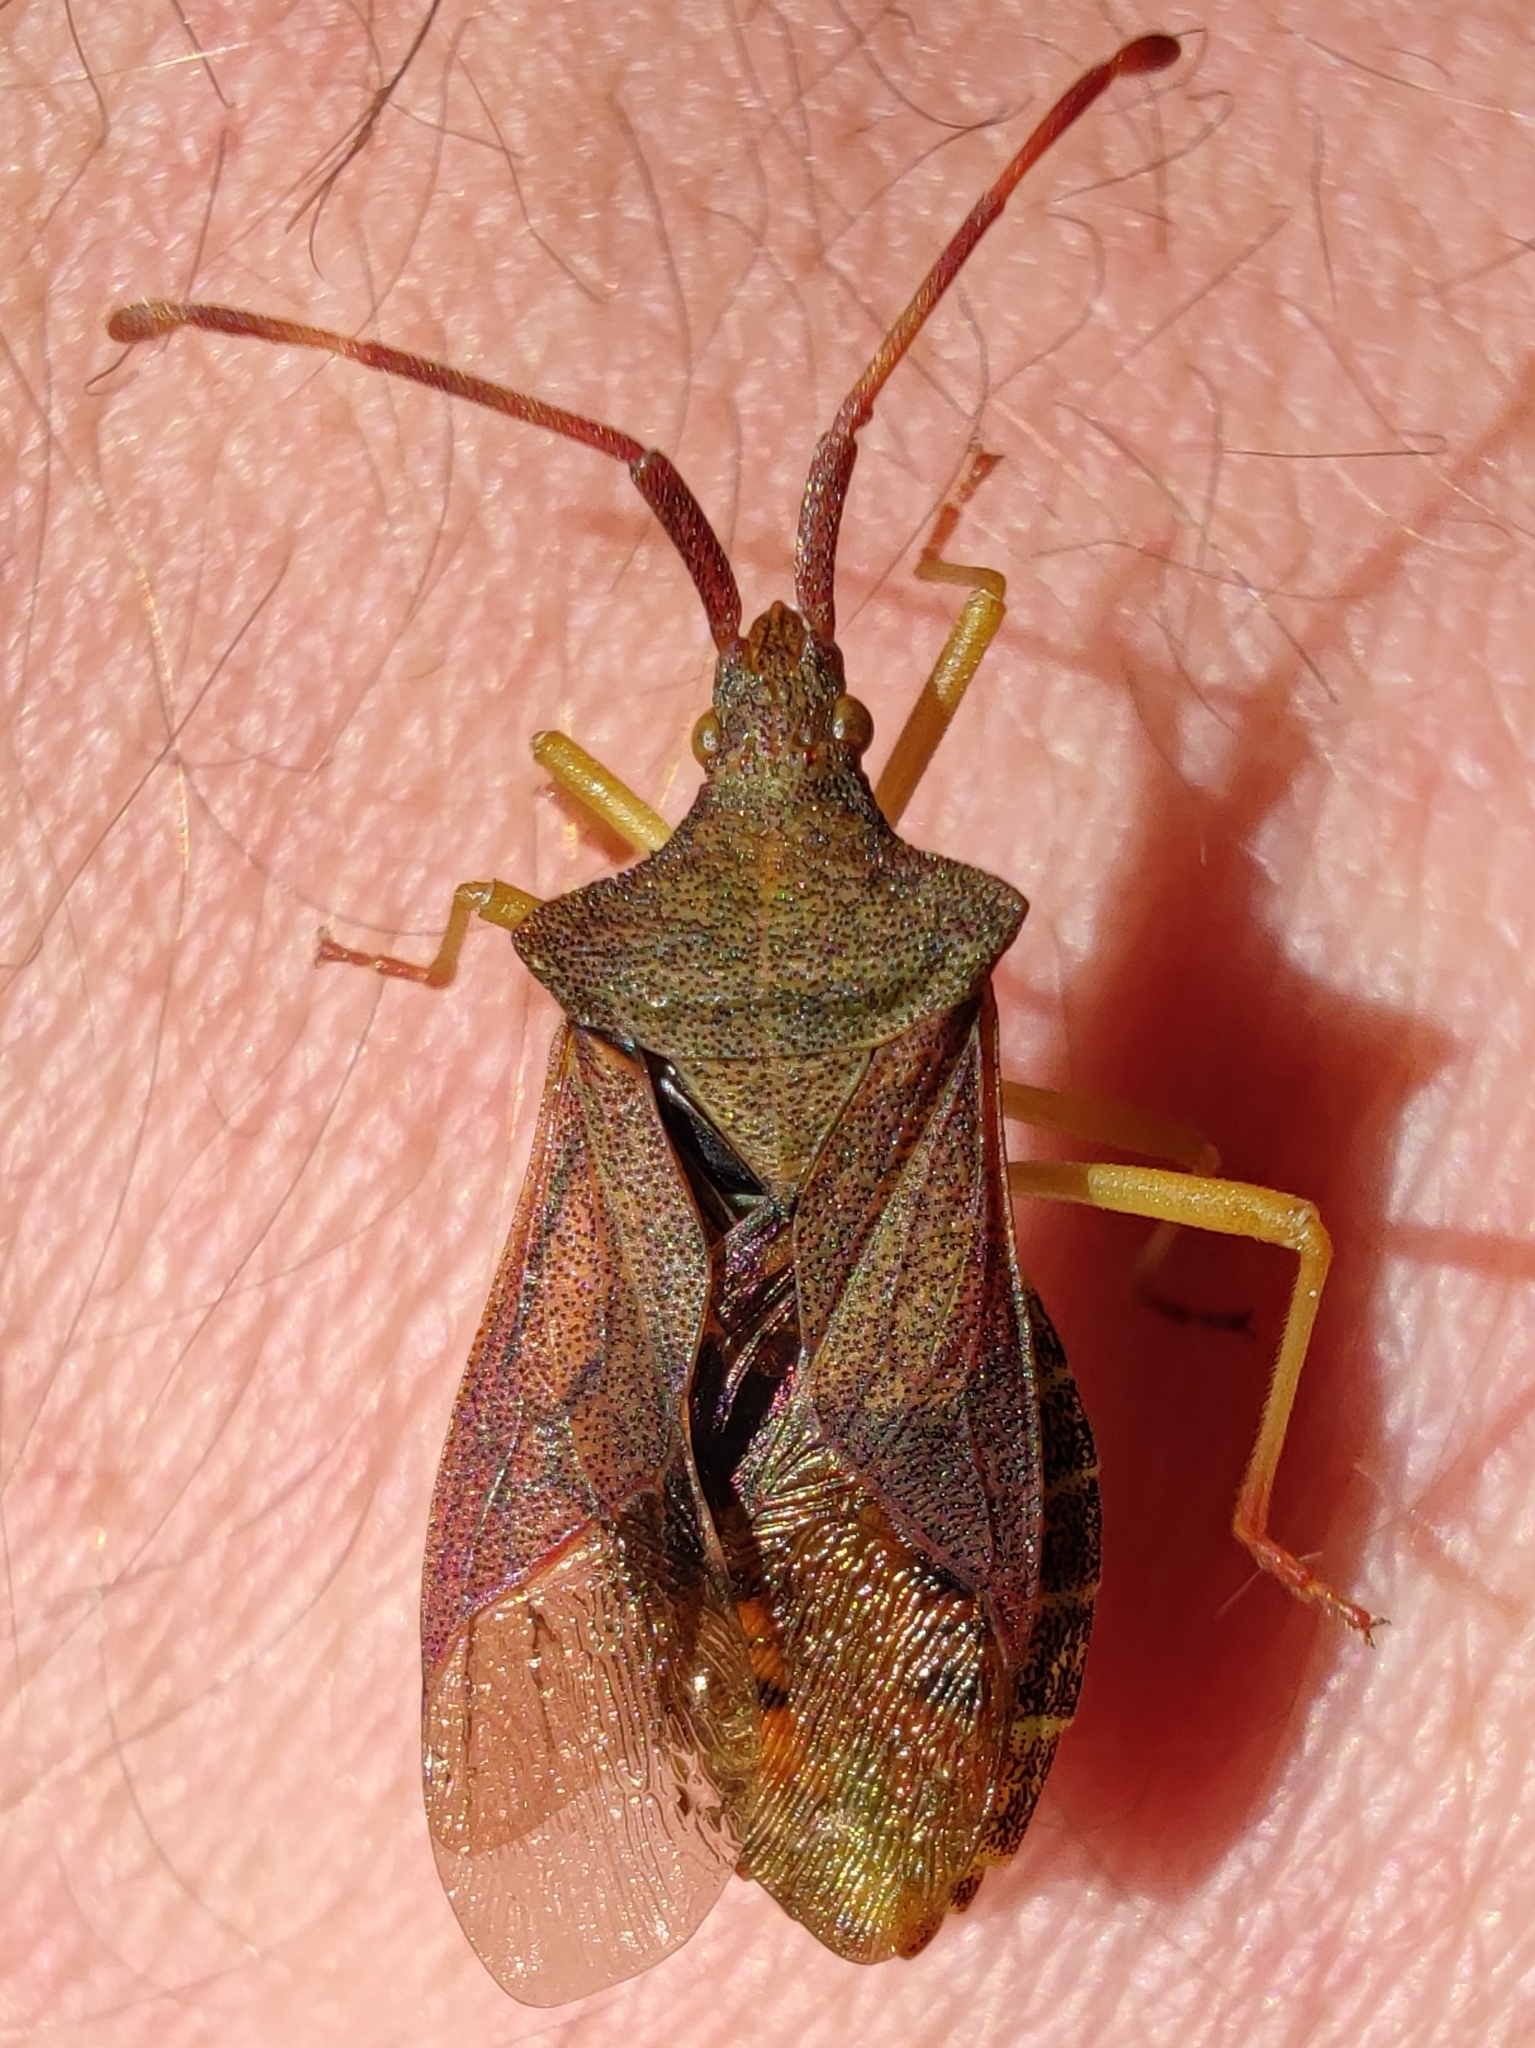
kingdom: Animalia
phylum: Arthropoda
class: Insecta
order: Hemiptera
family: Coreidae
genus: Gonocerus
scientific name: Gonocerus acuteangulatus
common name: Box bug
